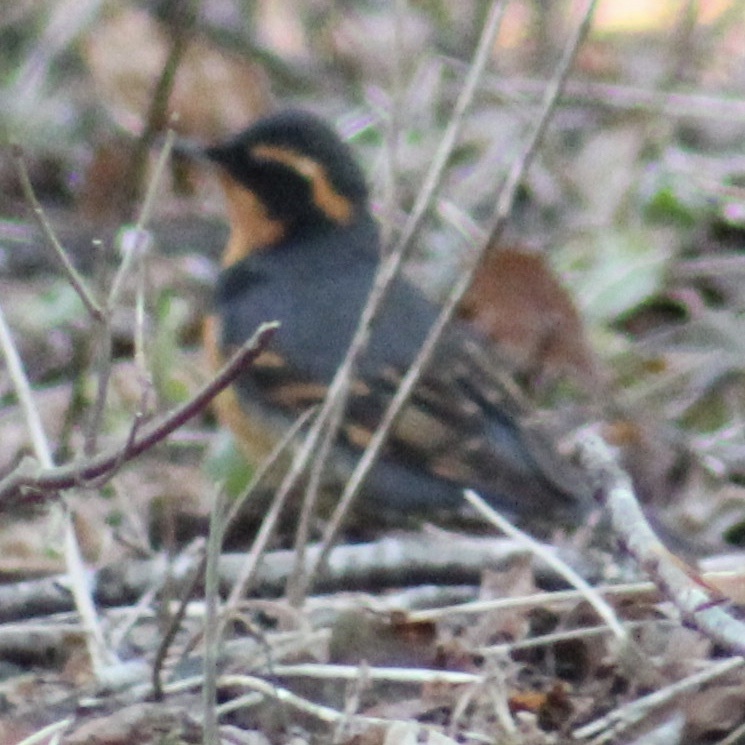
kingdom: Animalia
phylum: Chordata
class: Aves
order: Passeriformes
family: Turdidae
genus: Ixoreus
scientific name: Ixoreus naevius
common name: Varied thrush
